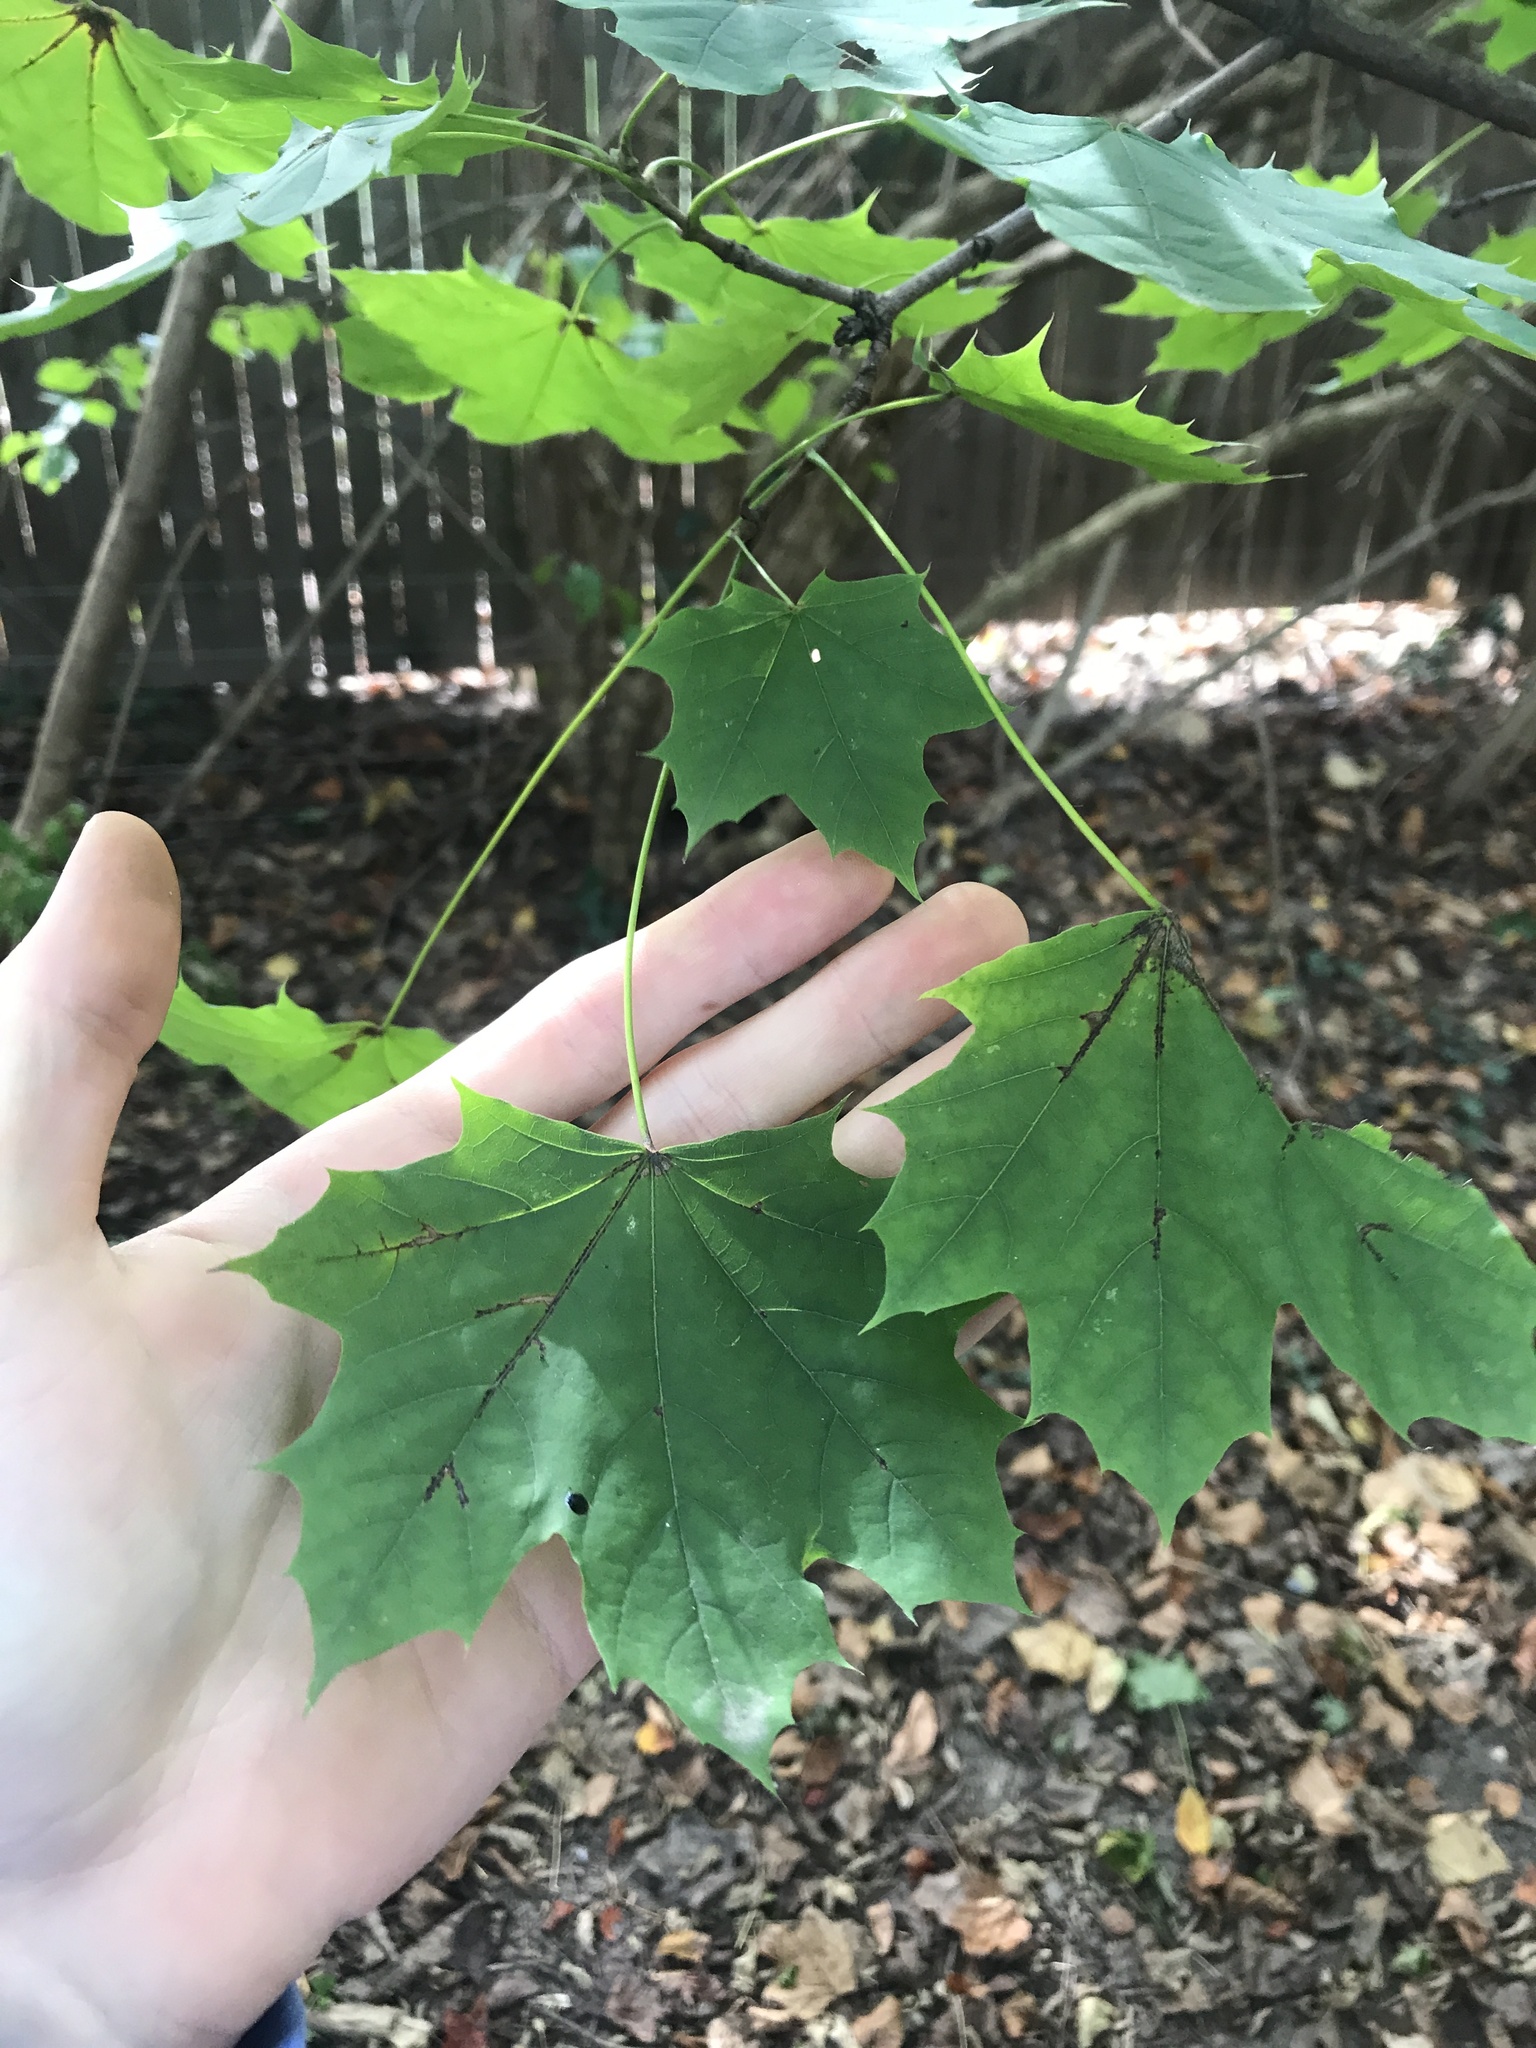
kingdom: Plantae
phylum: Tracheophyta
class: Magnoliopsida
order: Sapindales
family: Sapindaceae
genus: Acer
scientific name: Acer platanoides
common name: Norway maple
